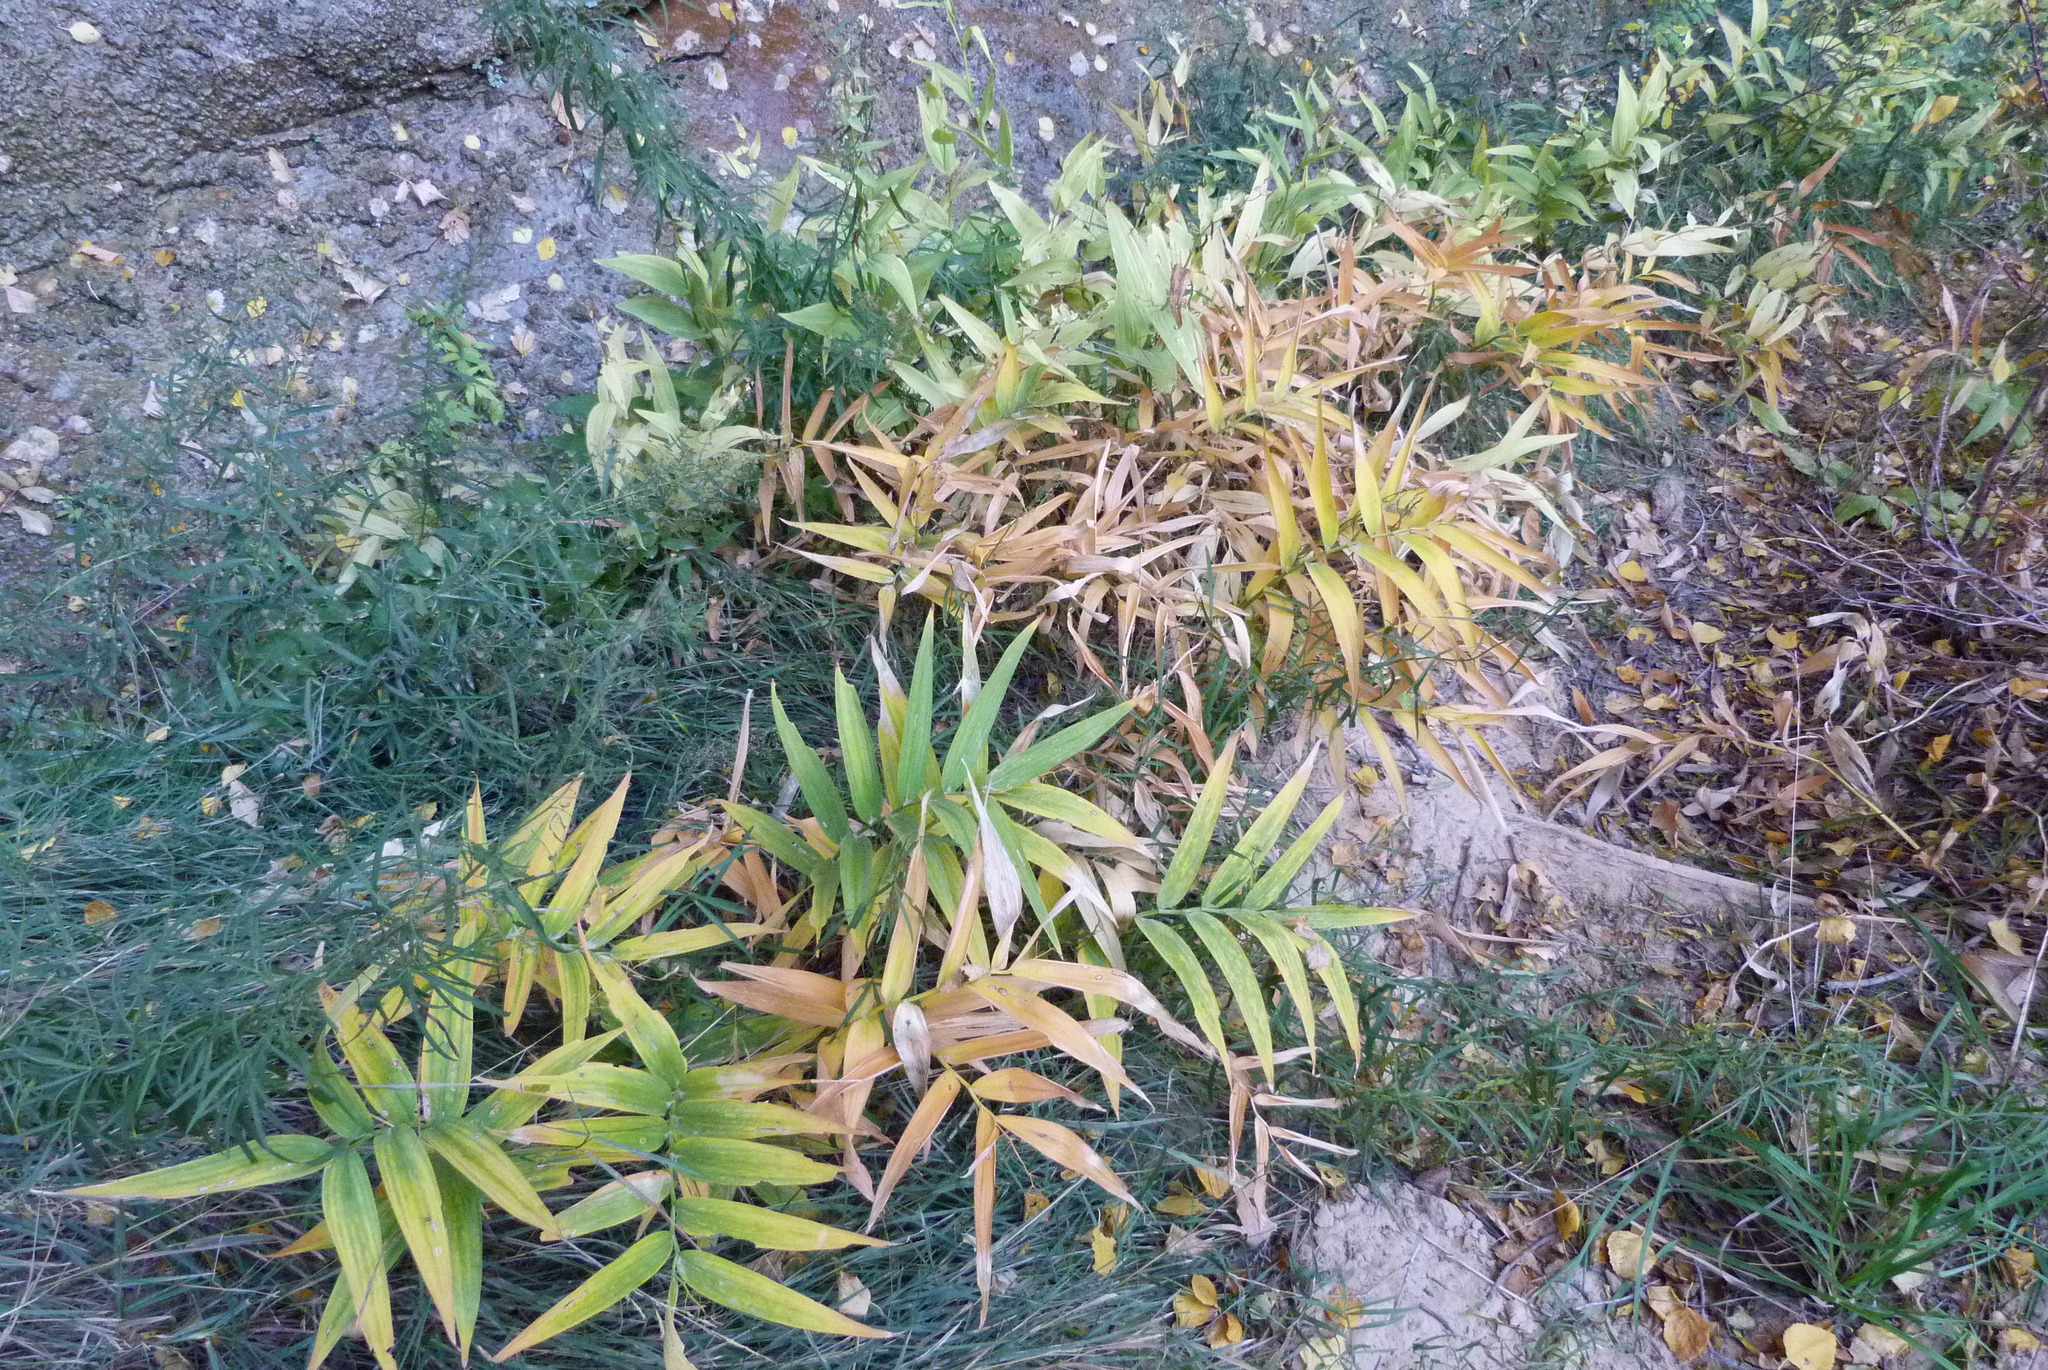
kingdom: Plantae
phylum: Tracheophyta
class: Liliopsida
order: Asparagales
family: Asparagaceae
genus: Maianthemum
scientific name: Maianthemum stellatum
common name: Little false solomon's seal
